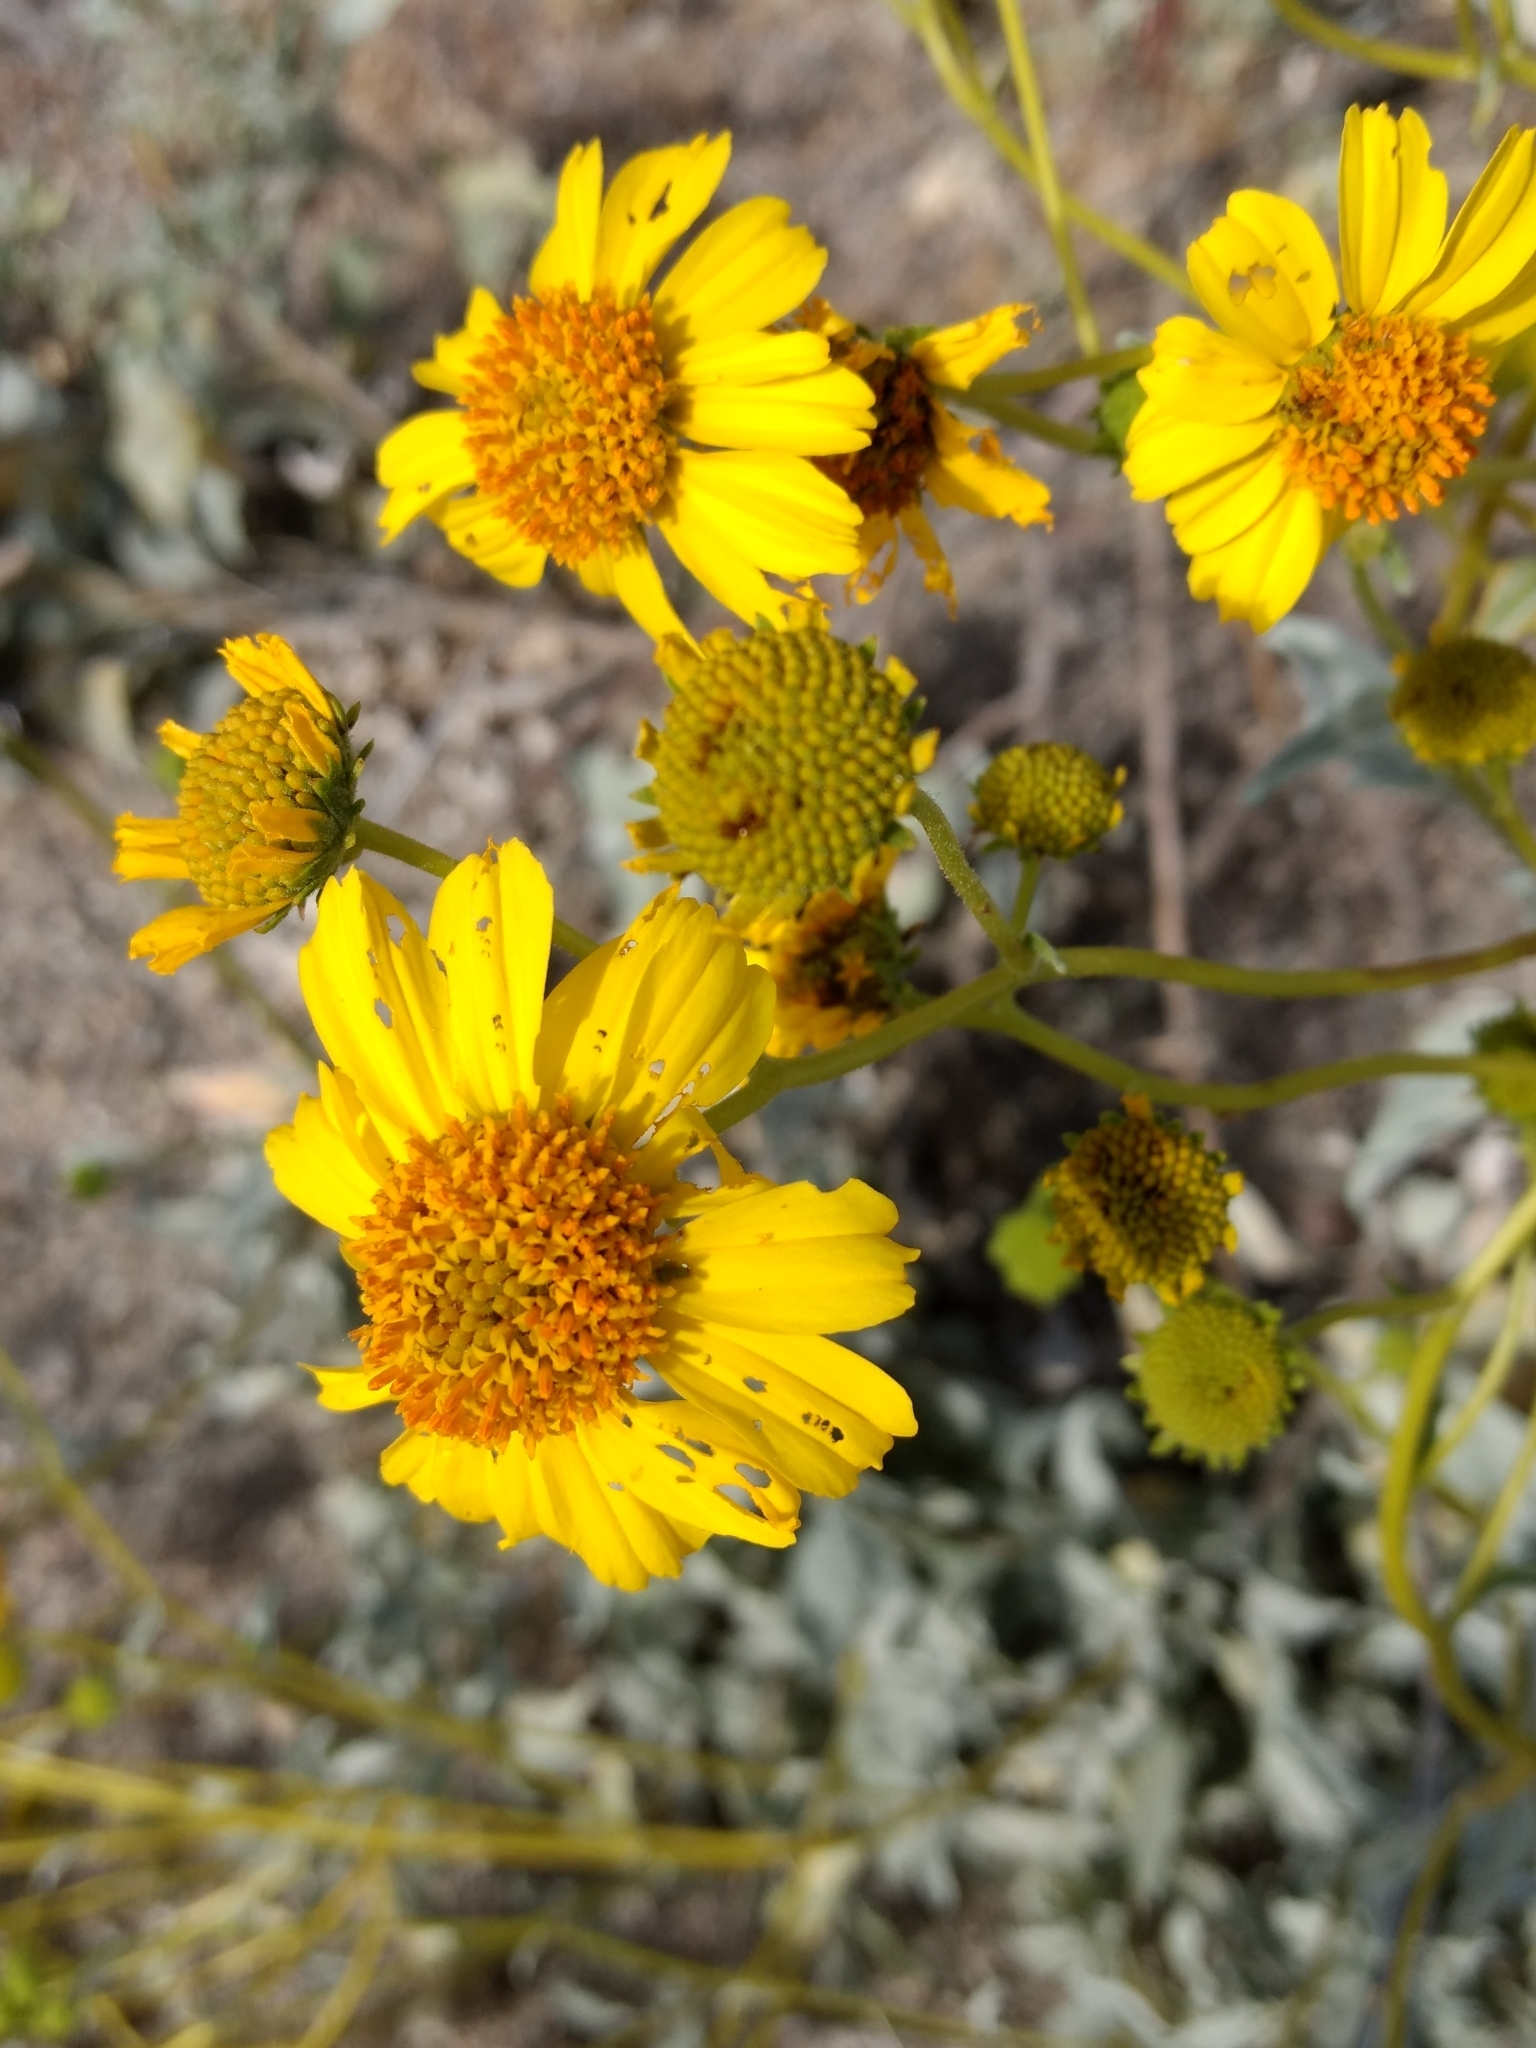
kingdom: Plantae
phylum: Tracheophyta
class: Magnoliopsida
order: Asterales
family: Asteraceae
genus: Encelia
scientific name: Encelia farinosa
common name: Brittlebush
